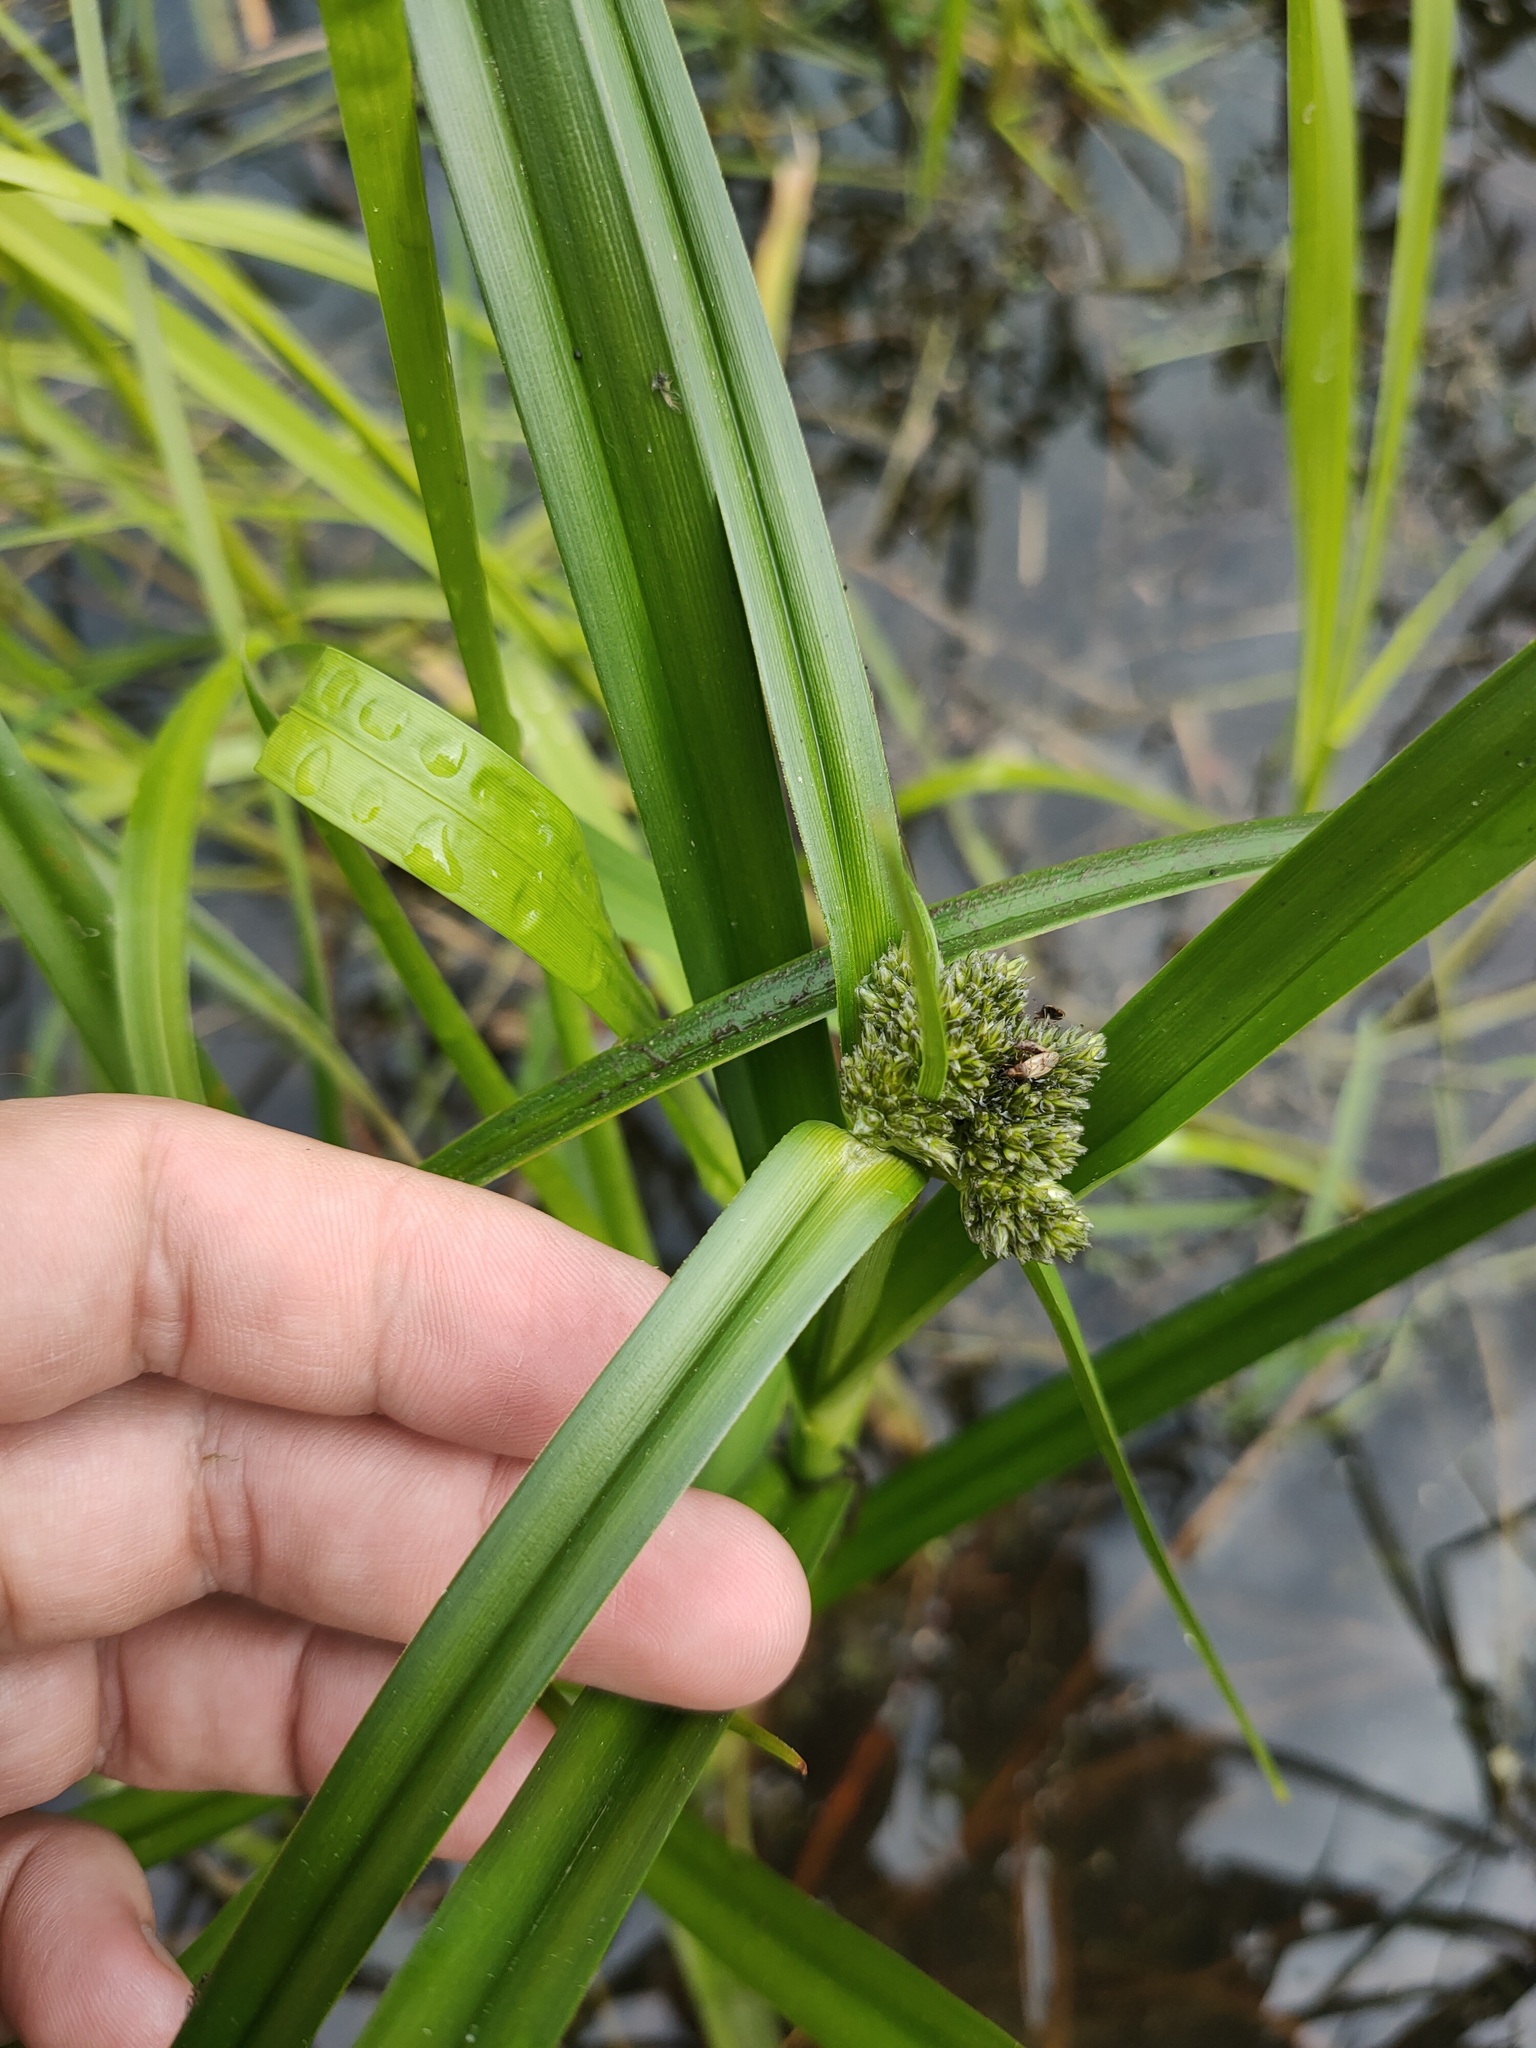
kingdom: Plantae
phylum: Tracheophyta
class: Liliopsida
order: Poales
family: Cyperaceae
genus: Scirpus
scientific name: Scirpus sylvaticus
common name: Wood club-rush
